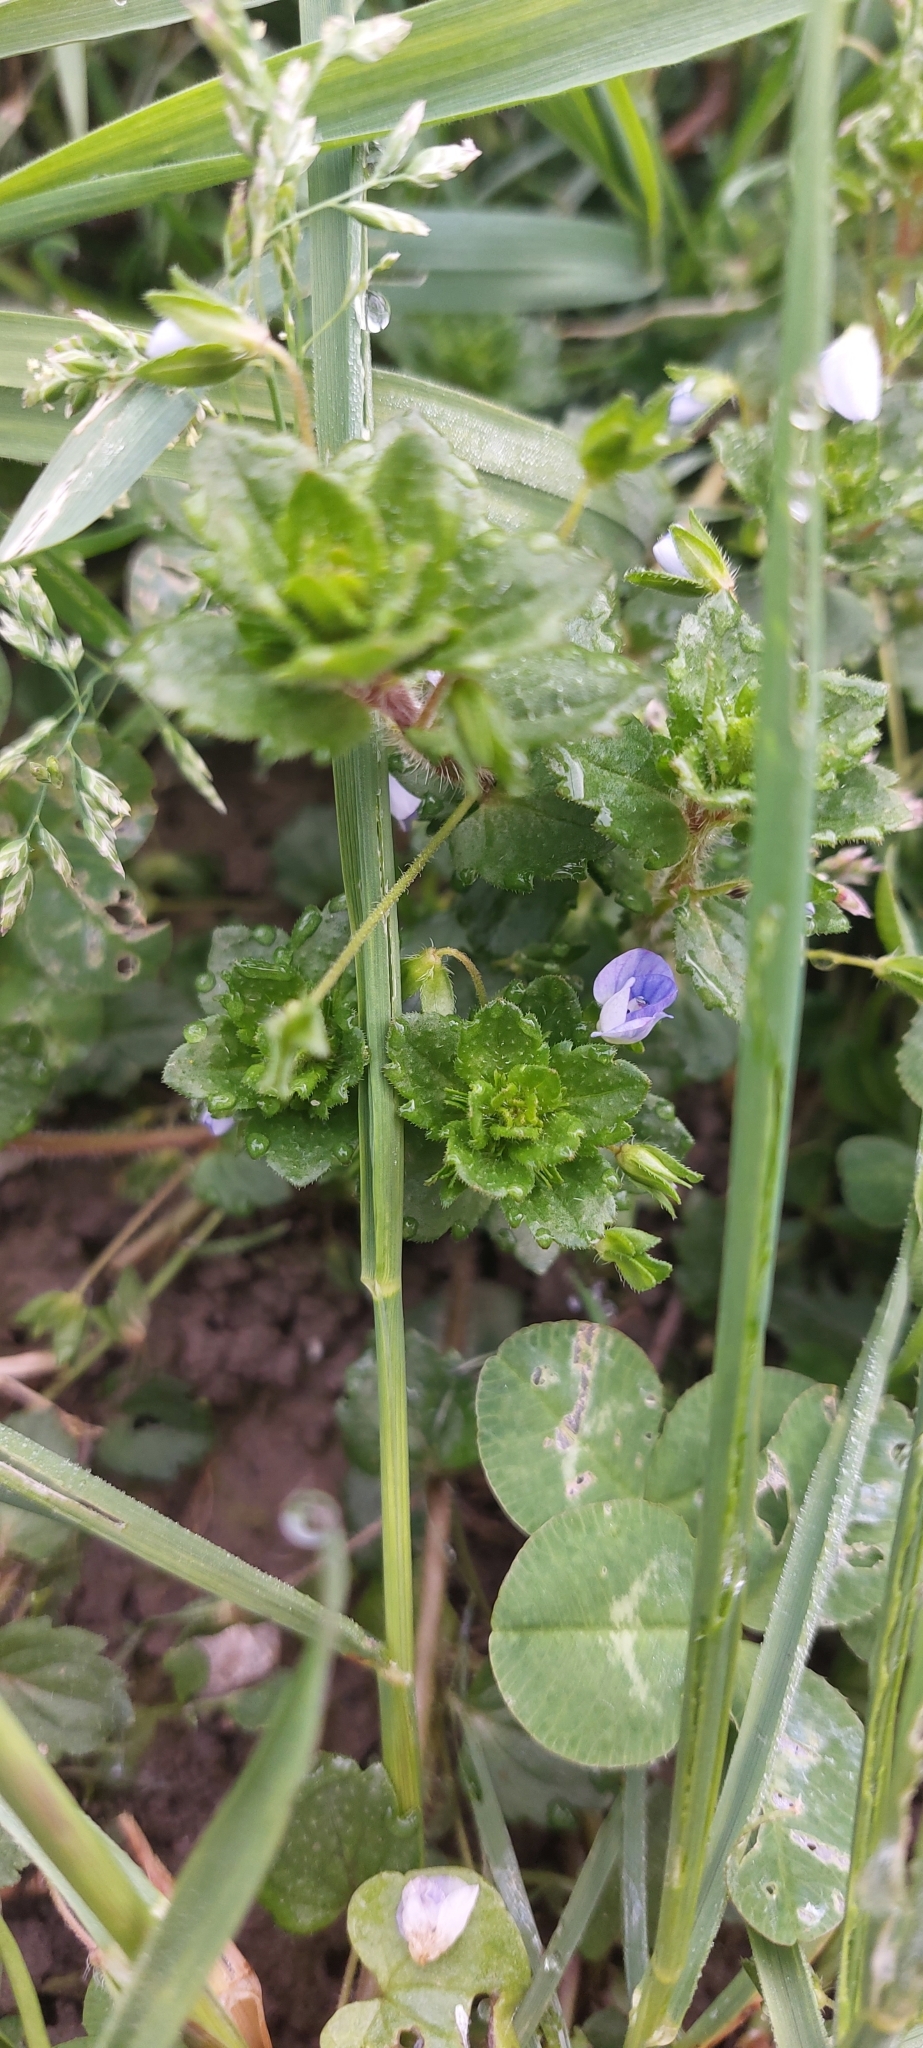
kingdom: Plantae
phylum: Tracheophyta
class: Magnoliopsida
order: Lamiales
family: Plantaginaceae
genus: Veronica
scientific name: Veronica persica
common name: Common field-speedwell
